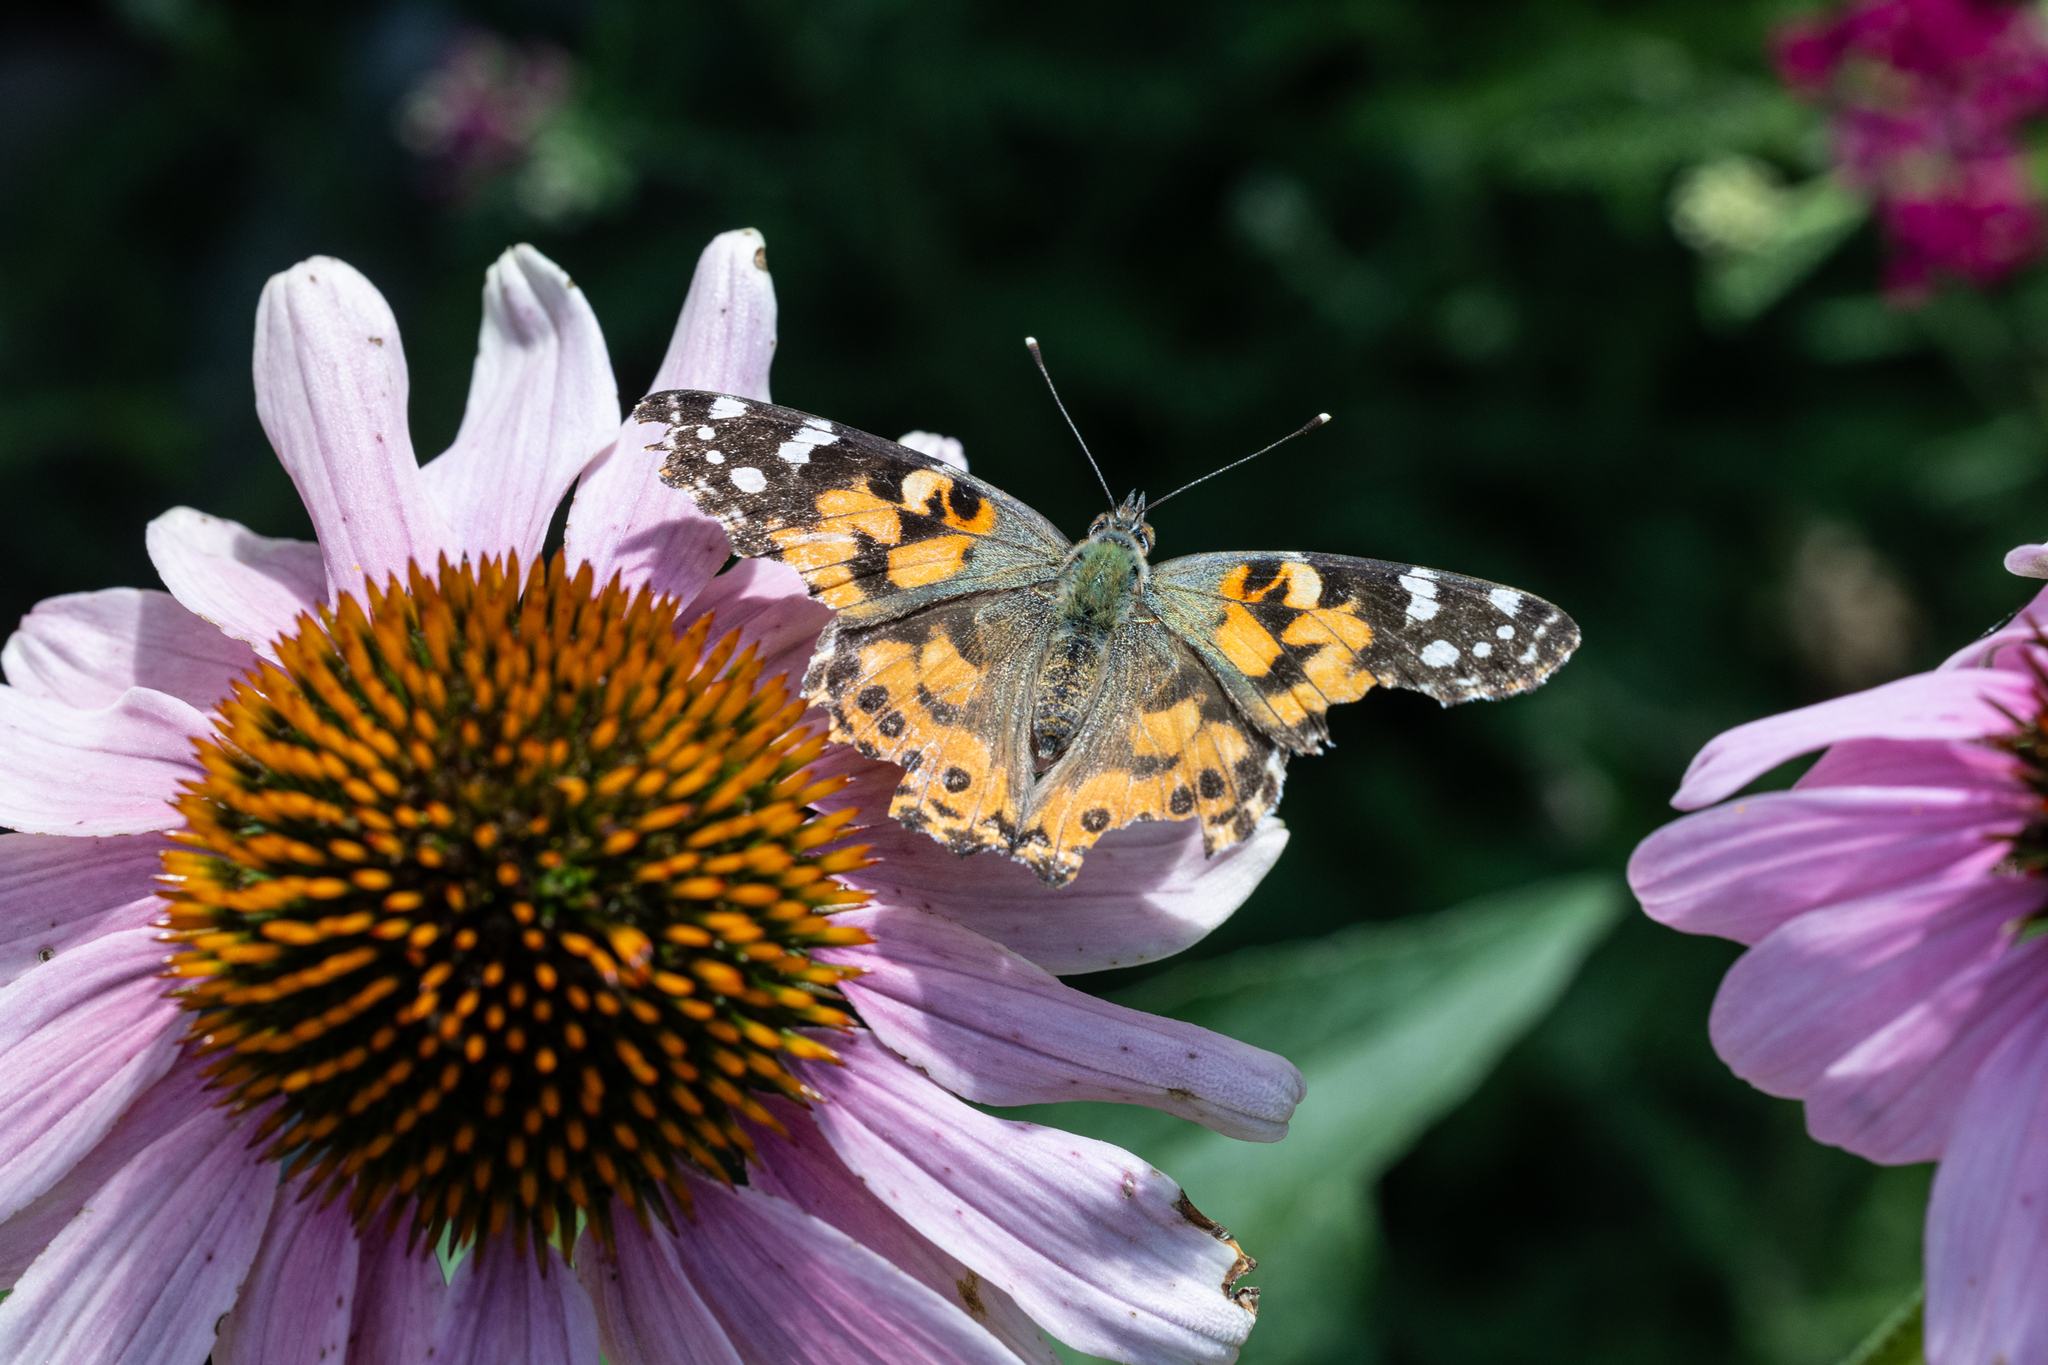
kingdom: Animalia
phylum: Arthropoda
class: Insecta
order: Lepidoptera
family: Nymphalidae
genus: Vanessa
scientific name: Vanessa cardui
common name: Painted lady
